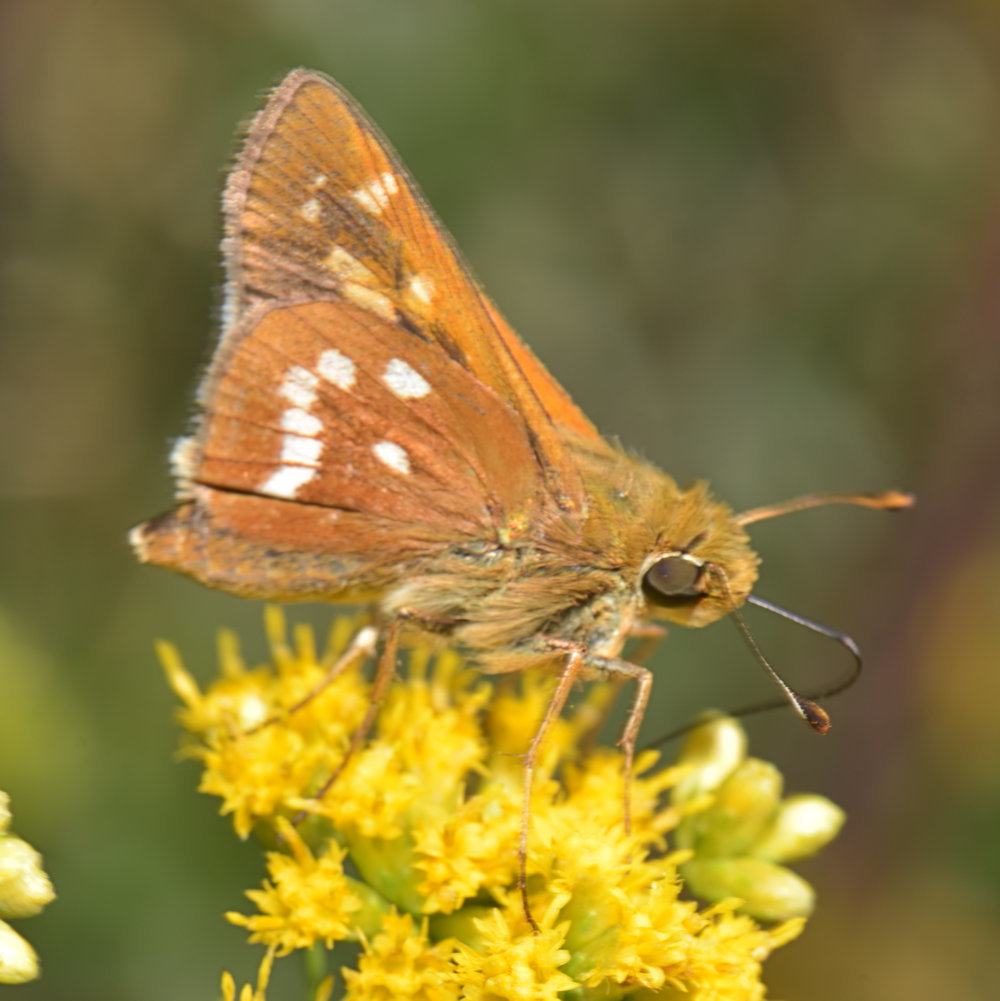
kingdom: Animalia
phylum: Arthropoda
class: Insecta
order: Lepidoptera
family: Hesperiidae
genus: Hesperia
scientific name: Hesperia leonardus
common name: Leonard's skipper
